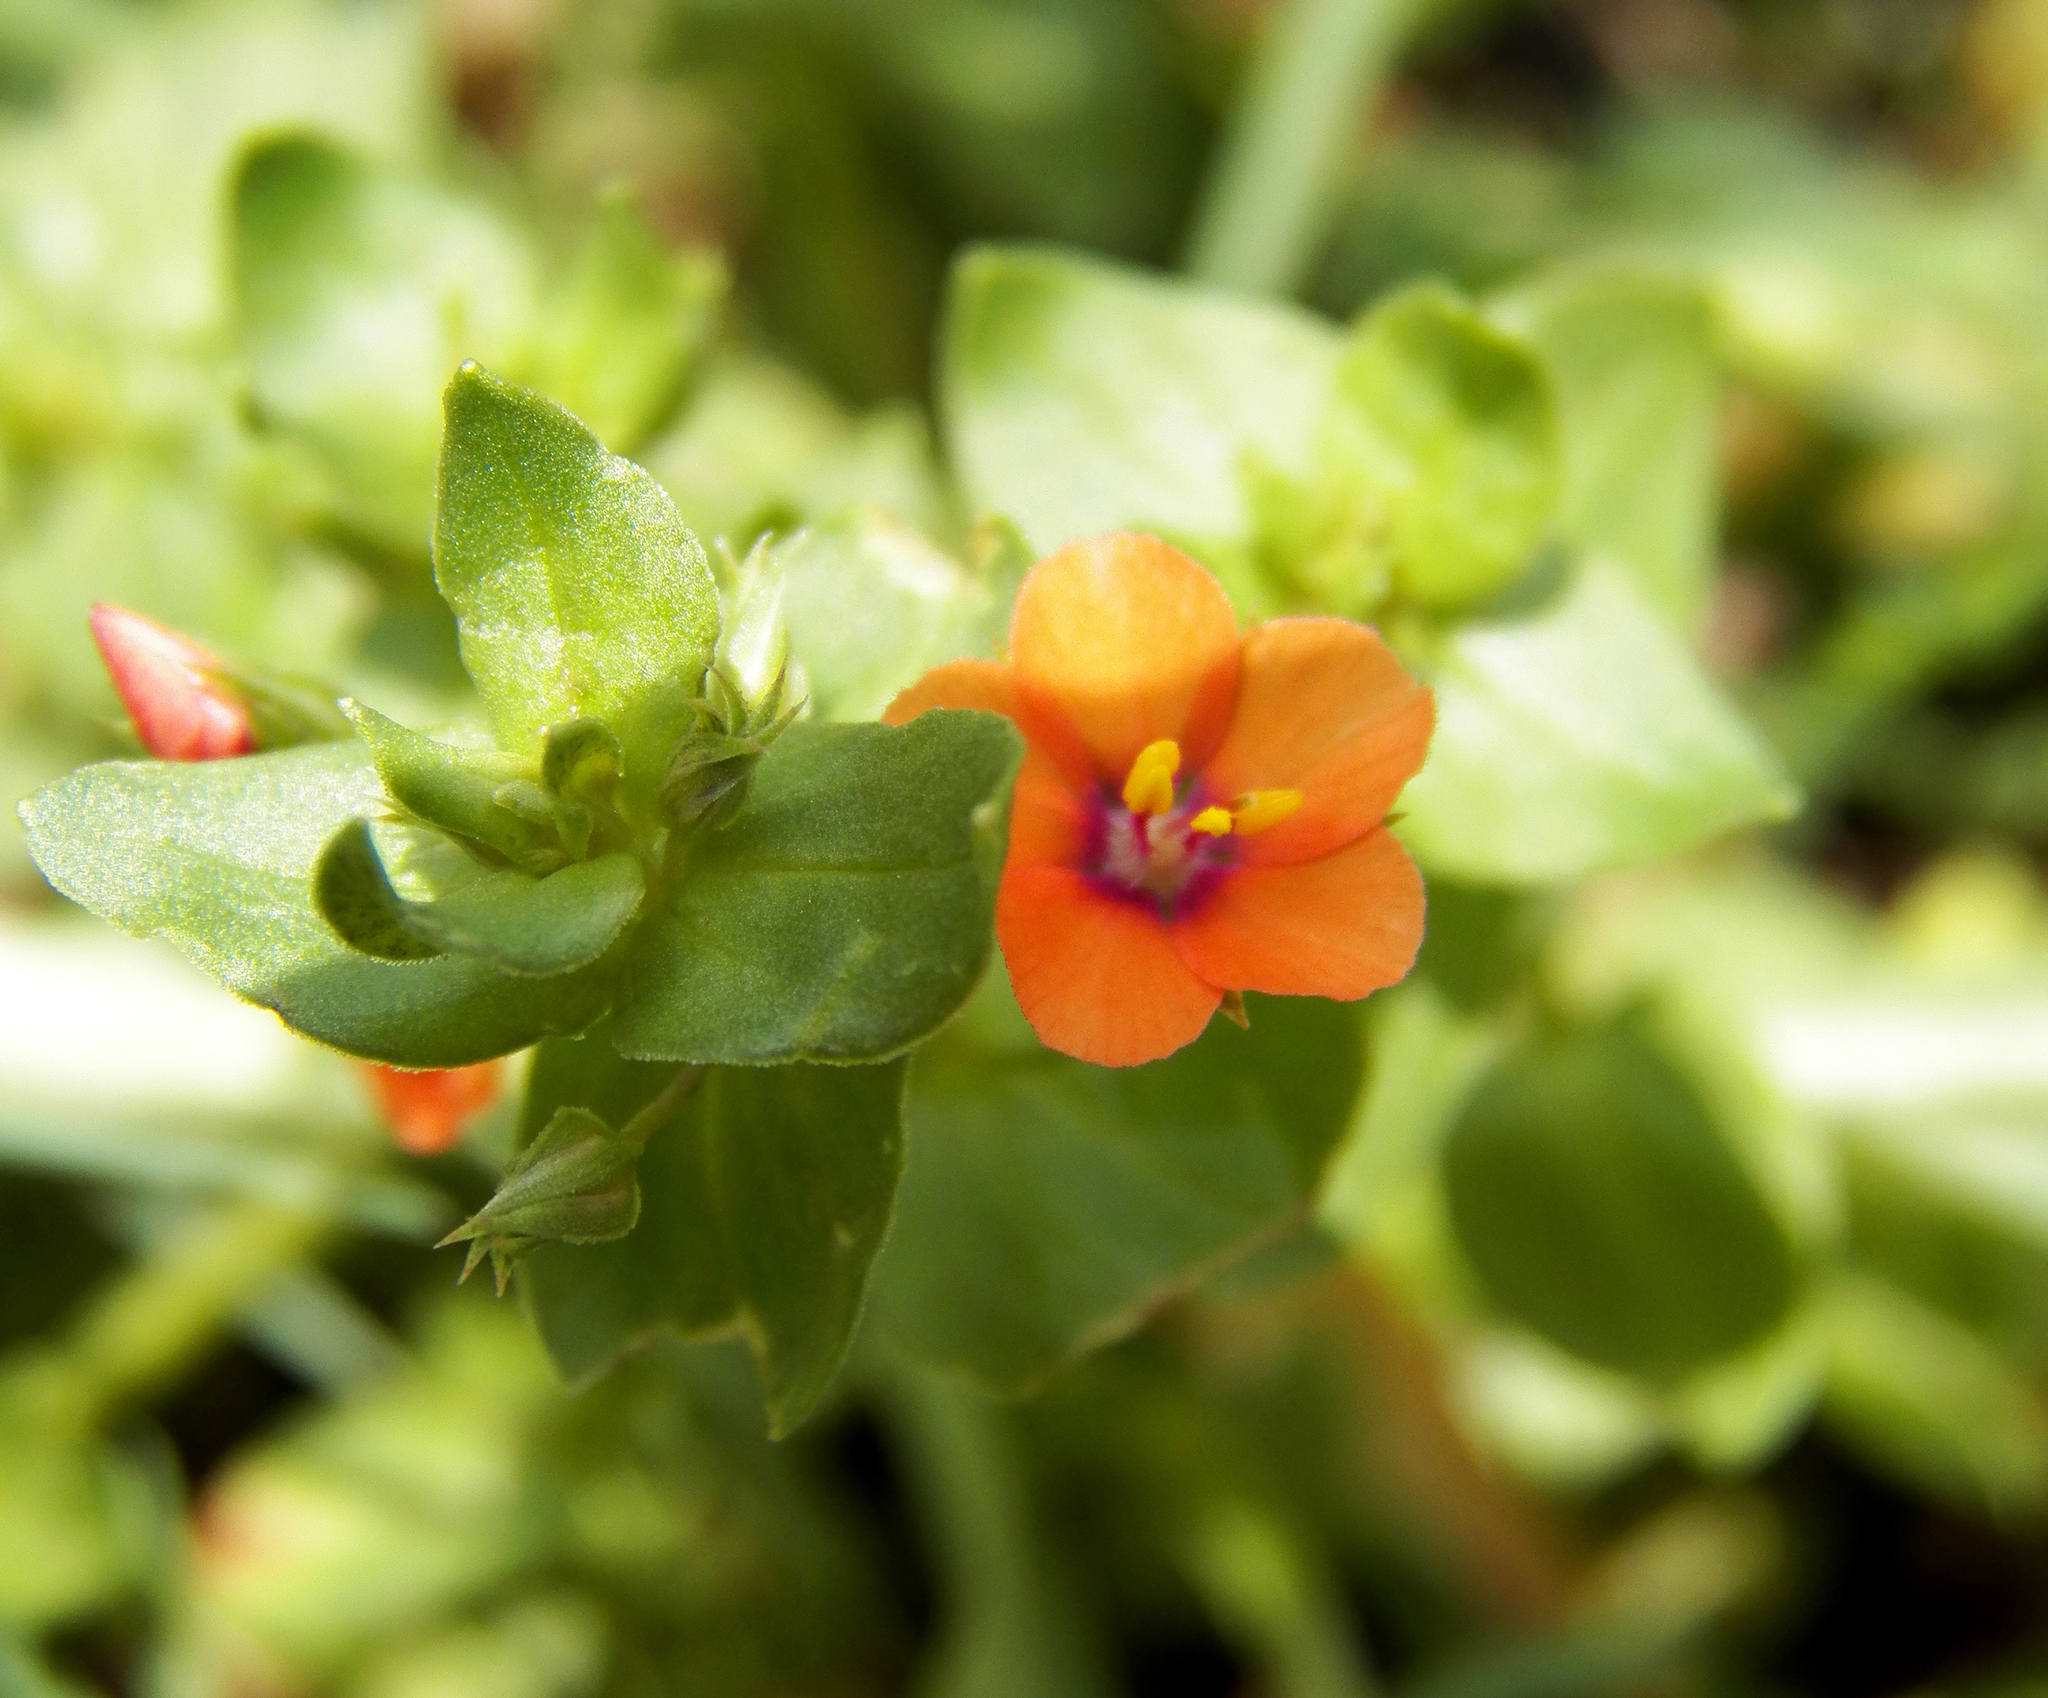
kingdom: Plantae
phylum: Tracheophyta
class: Magnoliopsida
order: Ericales
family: Primulaceae
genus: Lysimachia
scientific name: Lysimachia arvensis
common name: Scarlet pimpernel
